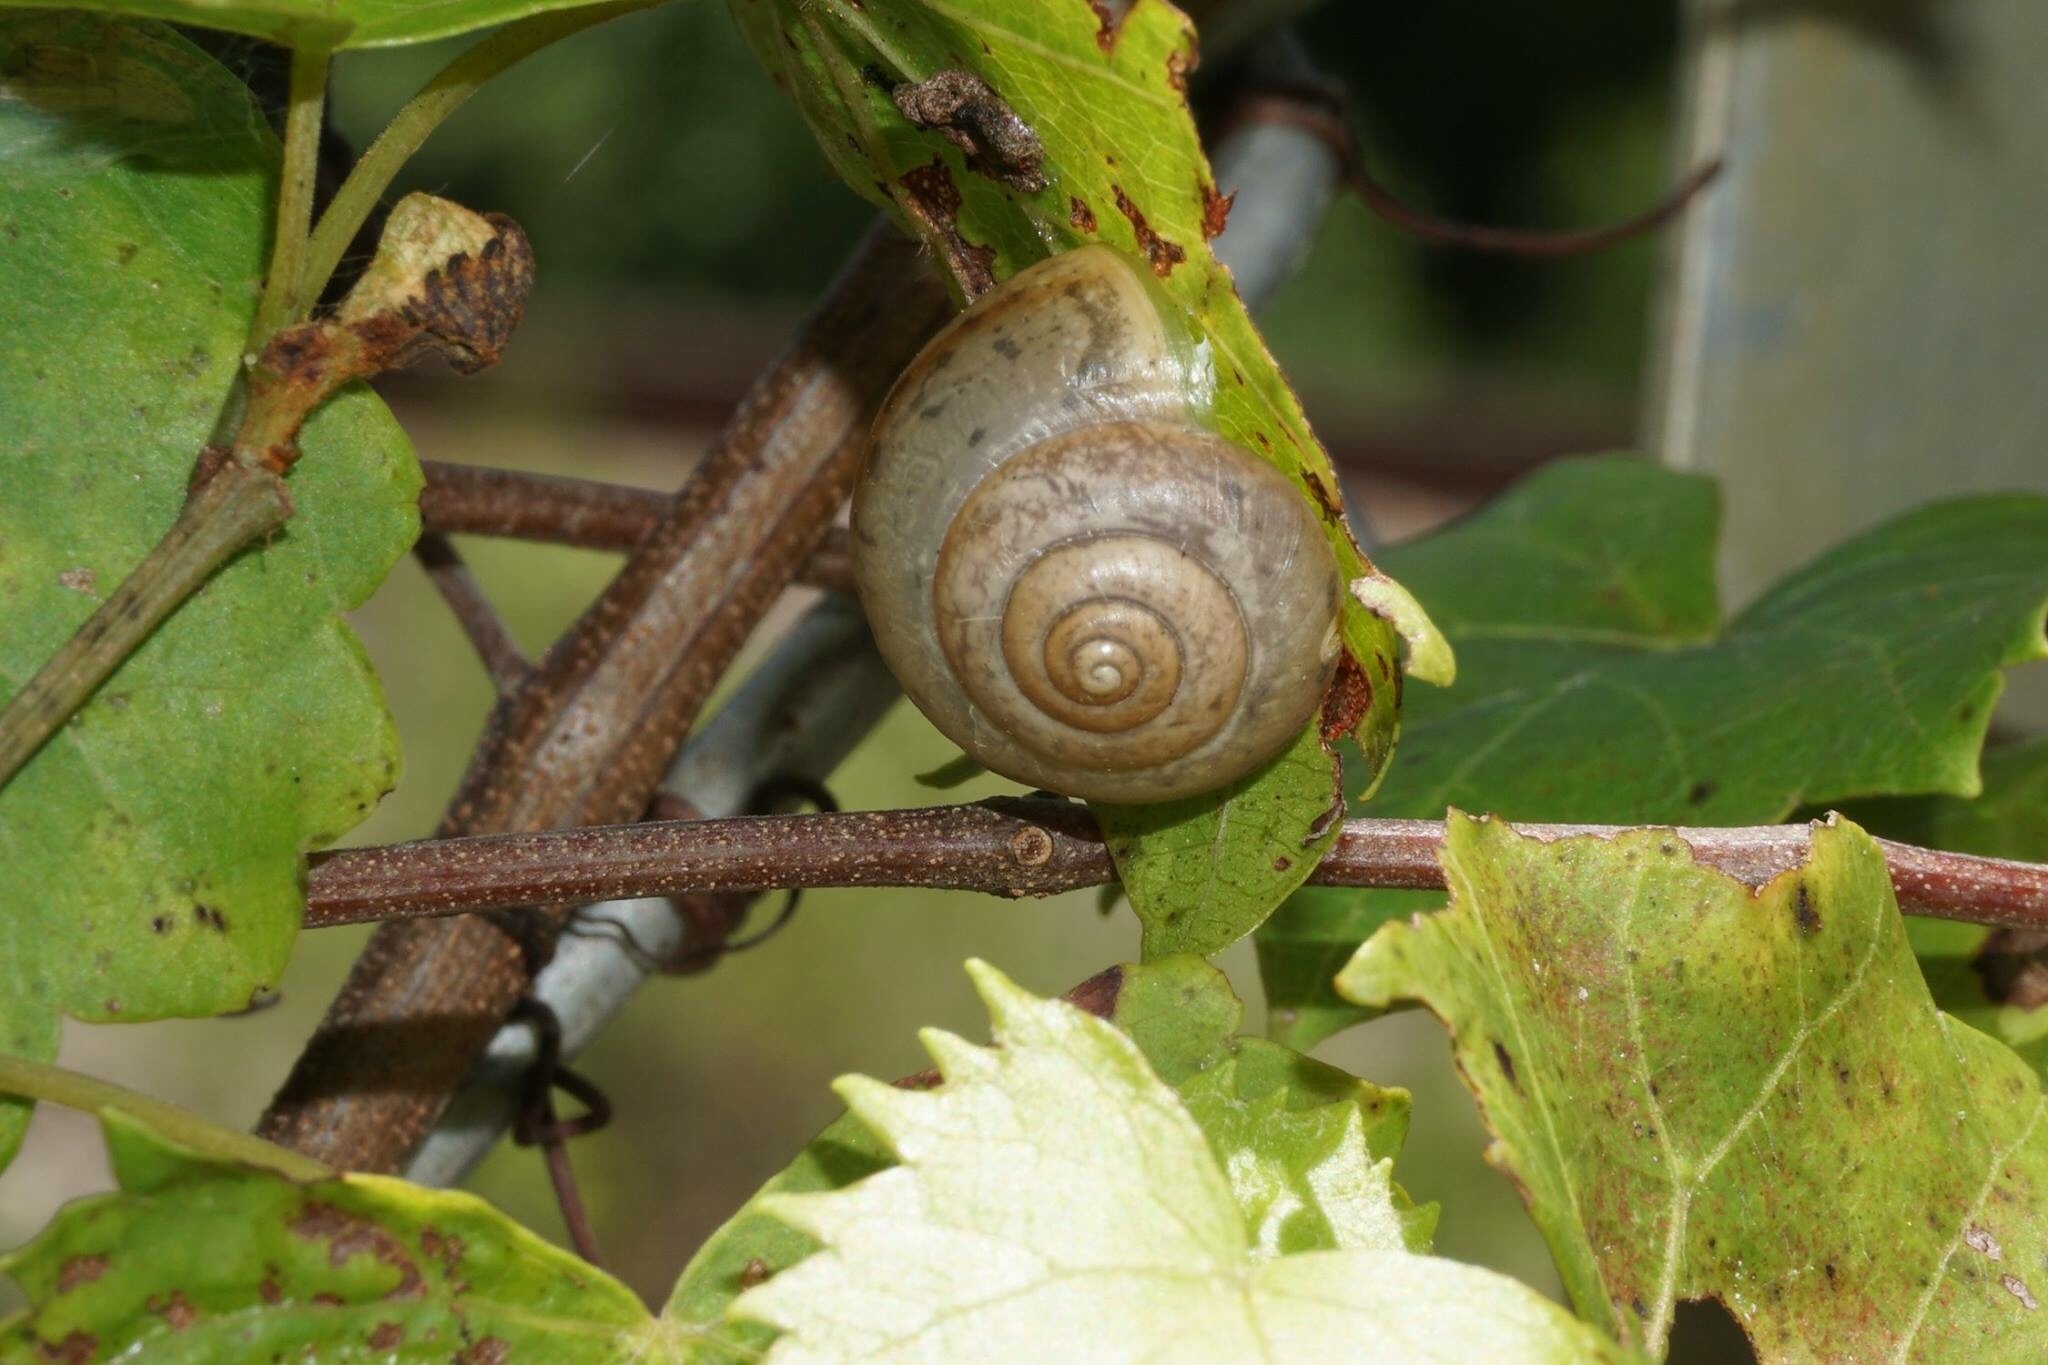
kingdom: Animalia
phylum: Mollusca
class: Gastropoda
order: Stylommatophora
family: Camaenidae
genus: Bradybaena
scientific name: Bradybaena similaris
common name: Asian trampsnail
